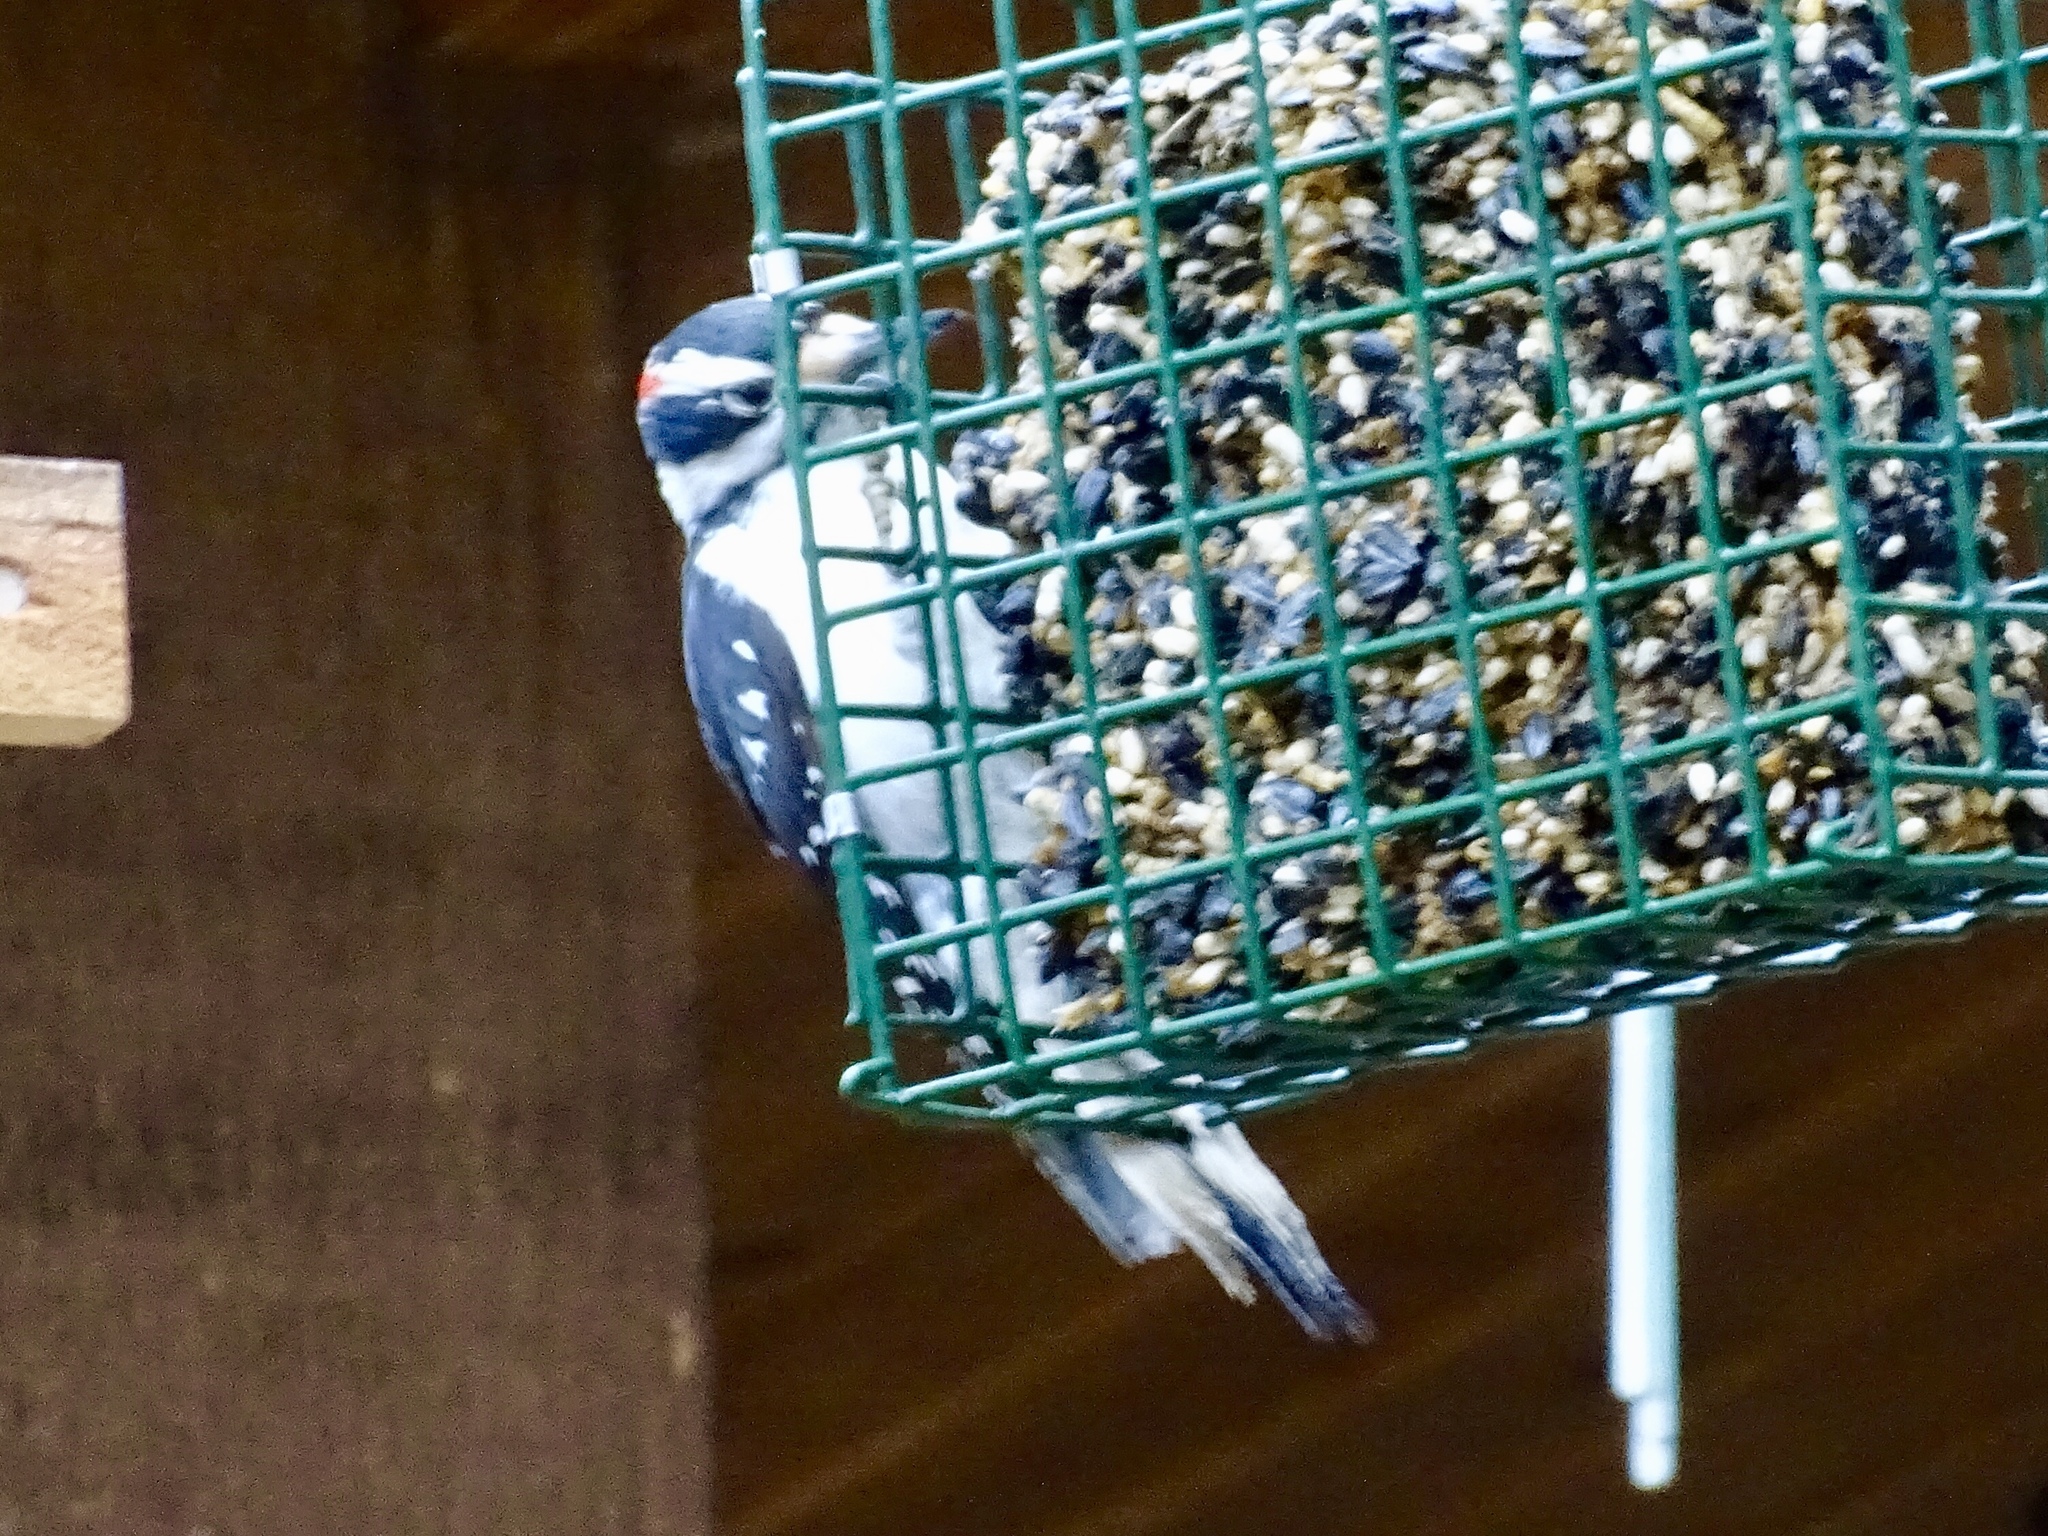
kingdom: Animalia
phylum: Chordata
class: Aves
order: Piciformes
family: Picidae
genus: Dryobates
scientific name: Dryobates pubescens
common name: Downy woodpecker
